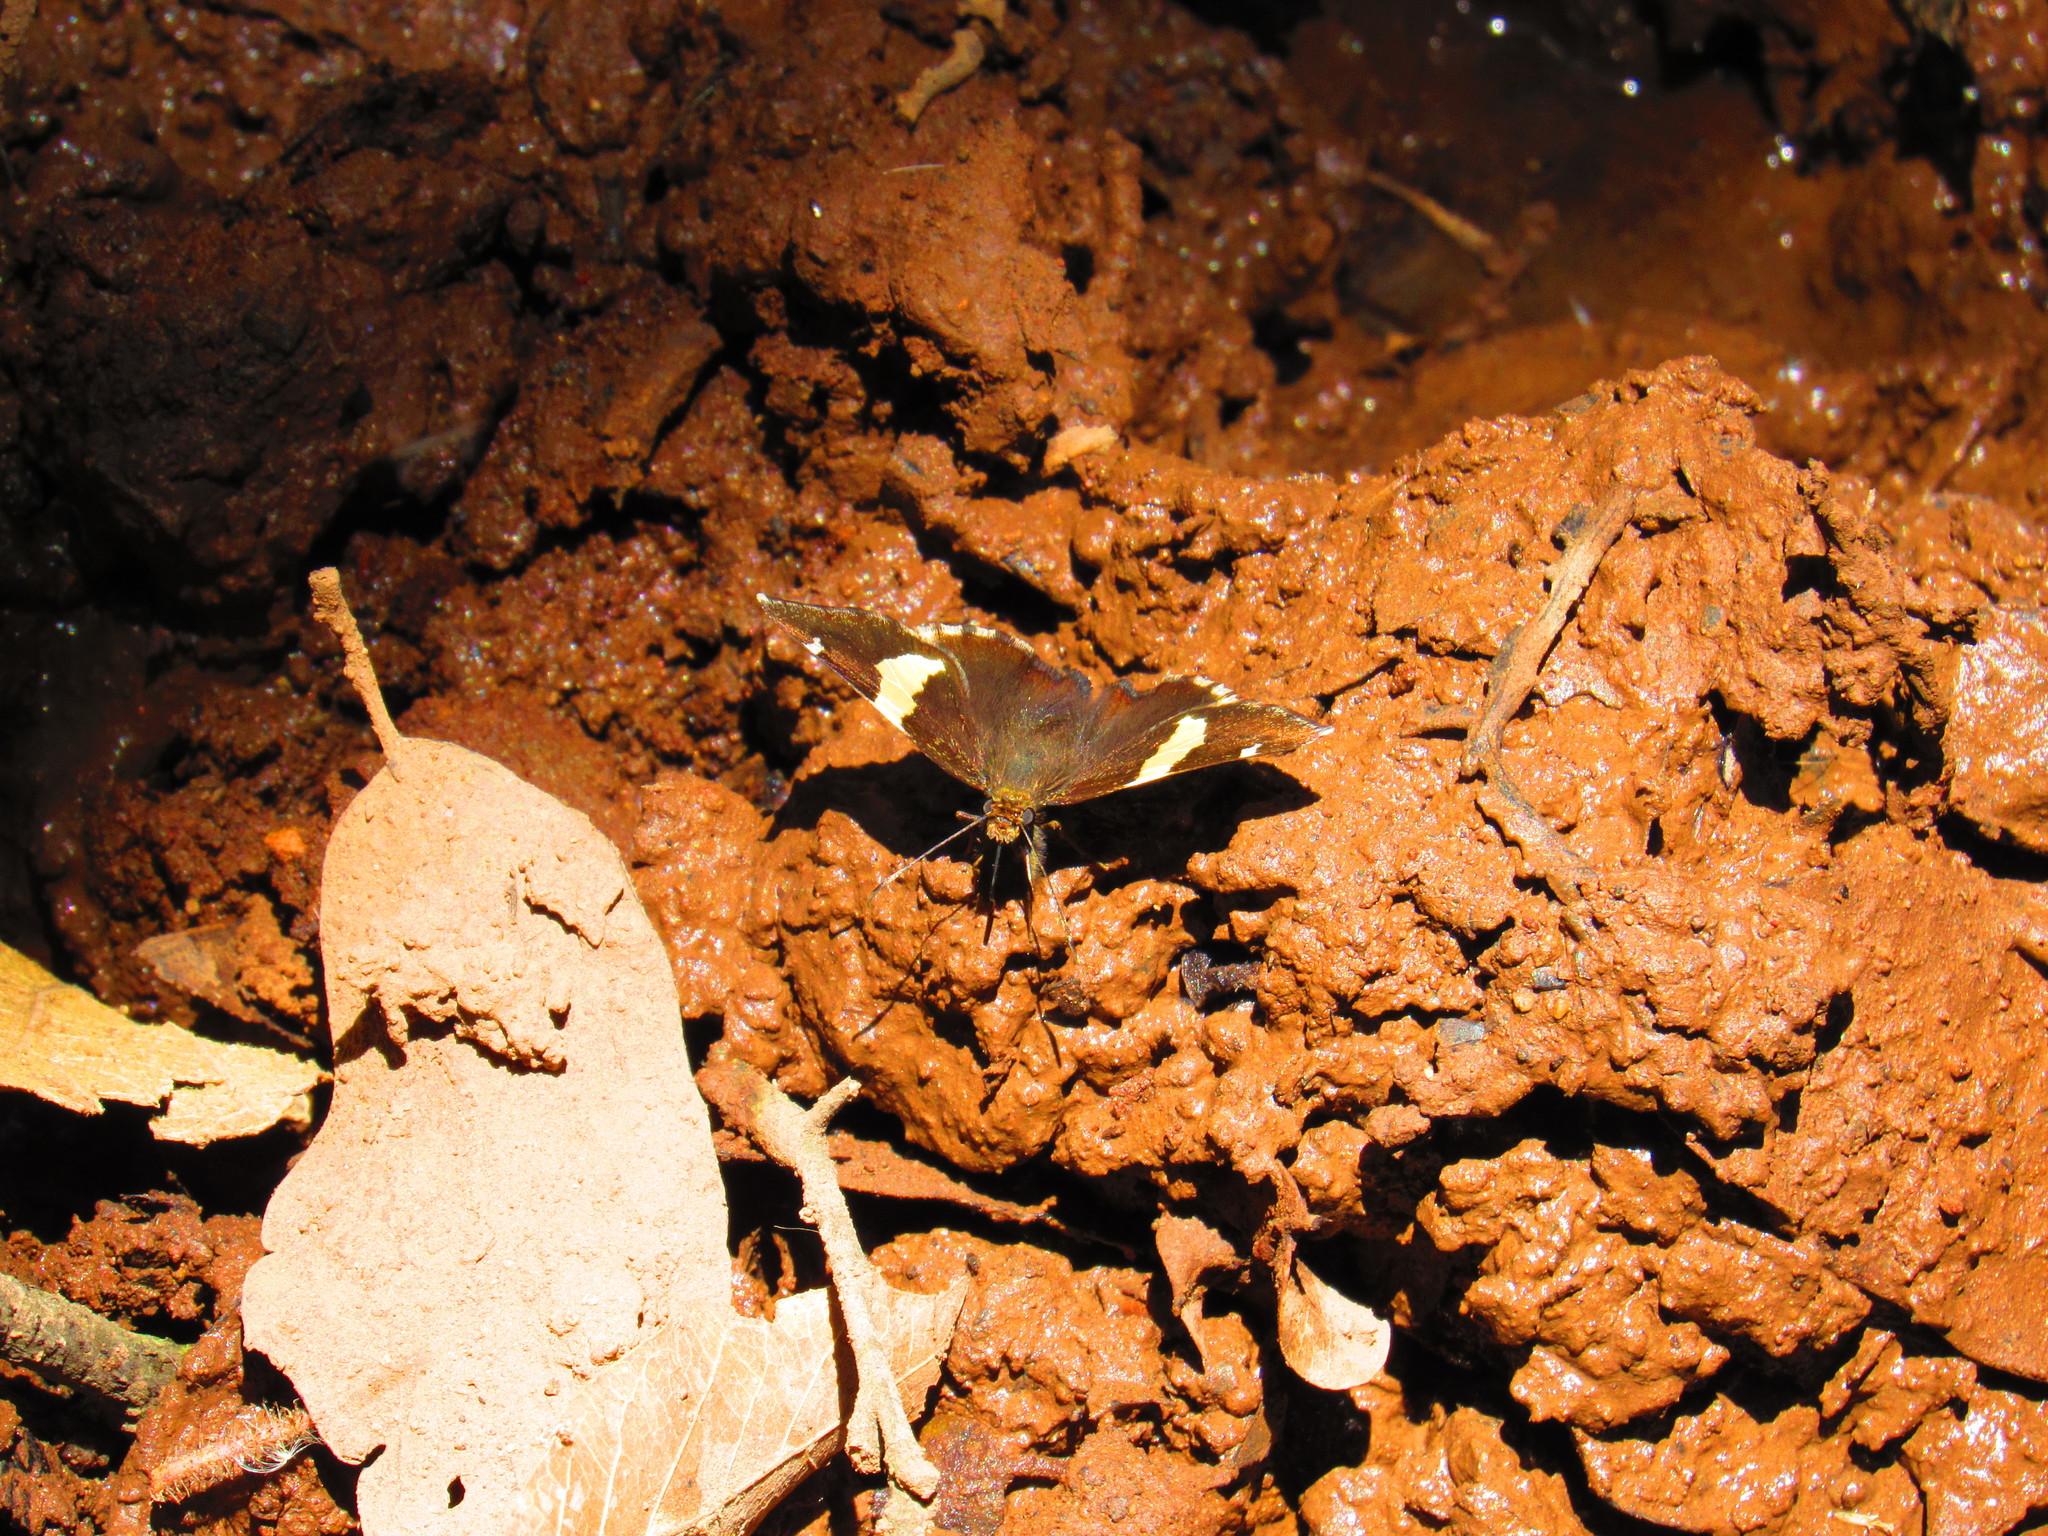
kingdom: Animalia
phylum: Arthropoda
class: Arachnida
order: Scorpiones
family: Bothriuridae
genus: Telegonus
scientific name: Telegonus cellus
